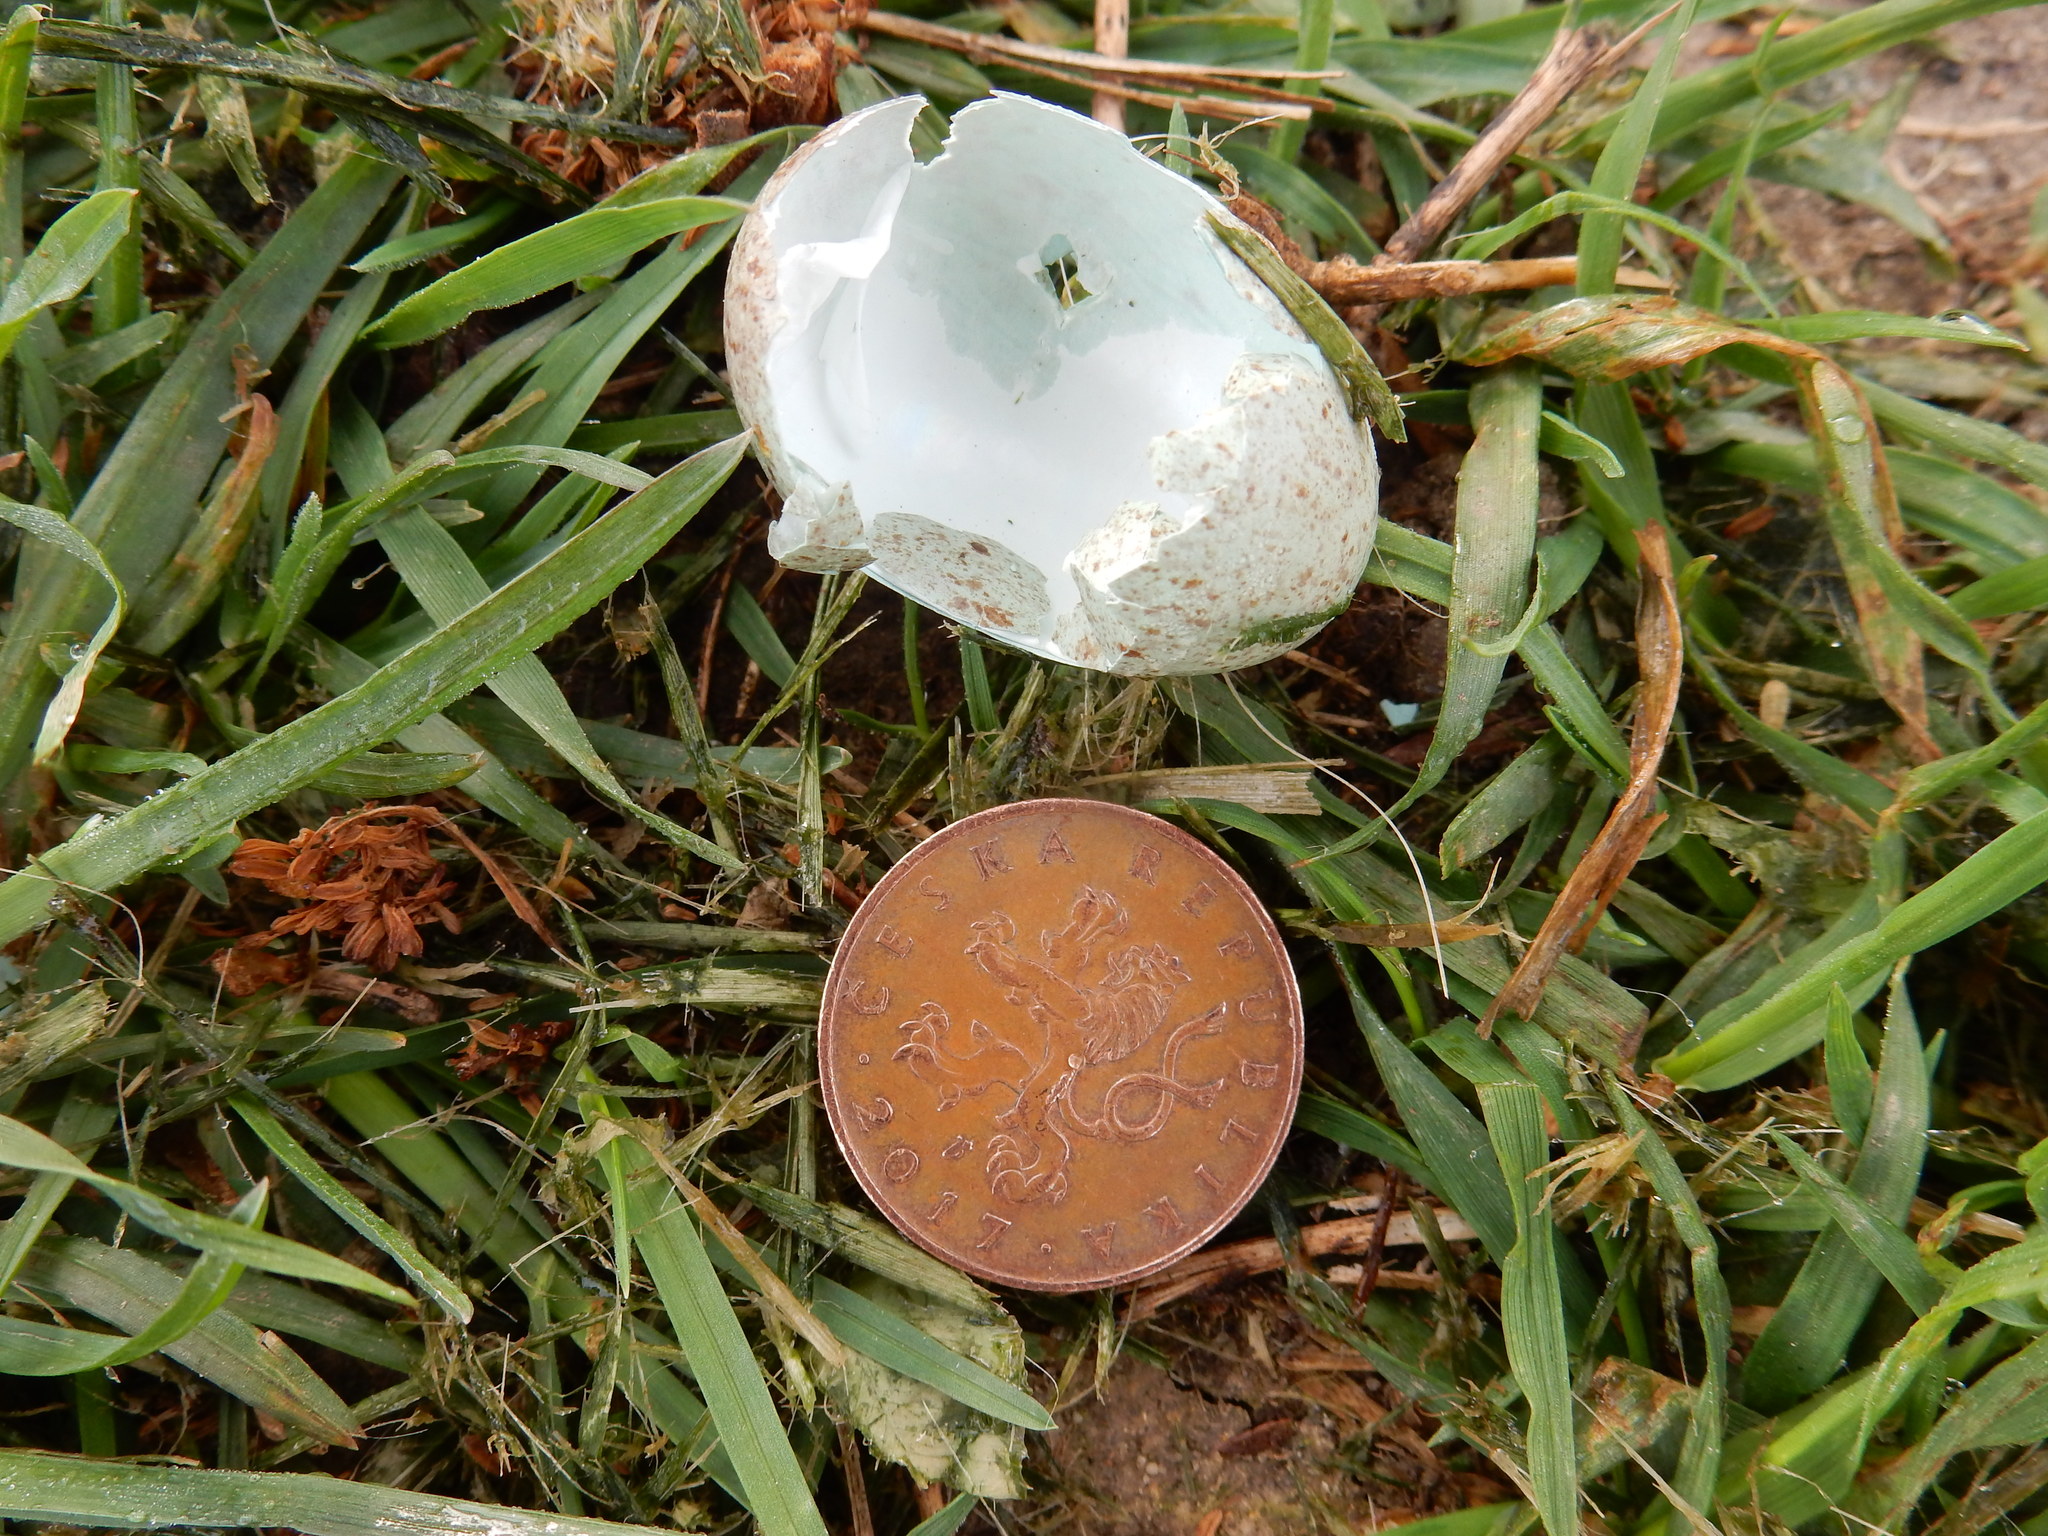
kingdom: Animalia
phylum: Arthropoda
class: Diplopoda
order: Julida
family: Julidae
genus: Cylindroiulus
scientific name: Cylindroiulus caeruleocinctus
